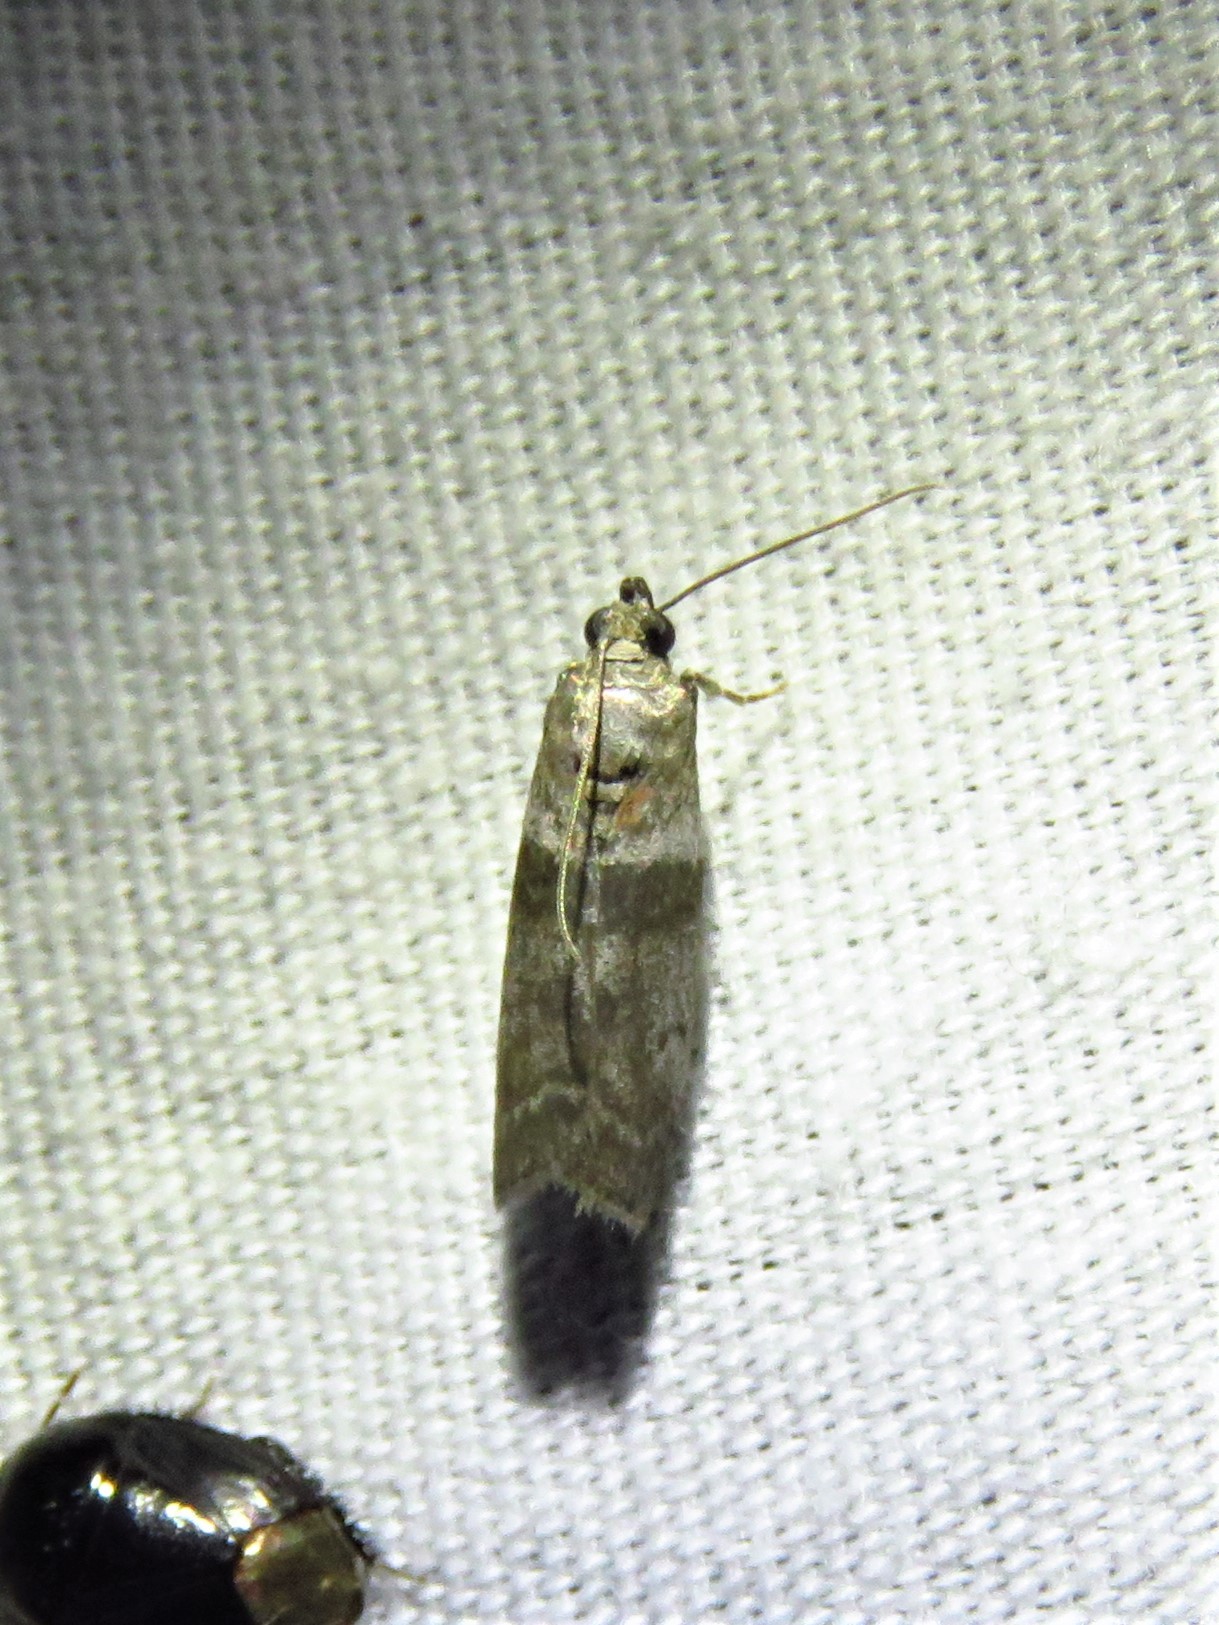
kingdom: Animalia
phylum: Arthropoda
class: Insecta
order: Lepidoptera
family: Pyralidae
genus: Sciota
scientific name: Sciota subfuscella
